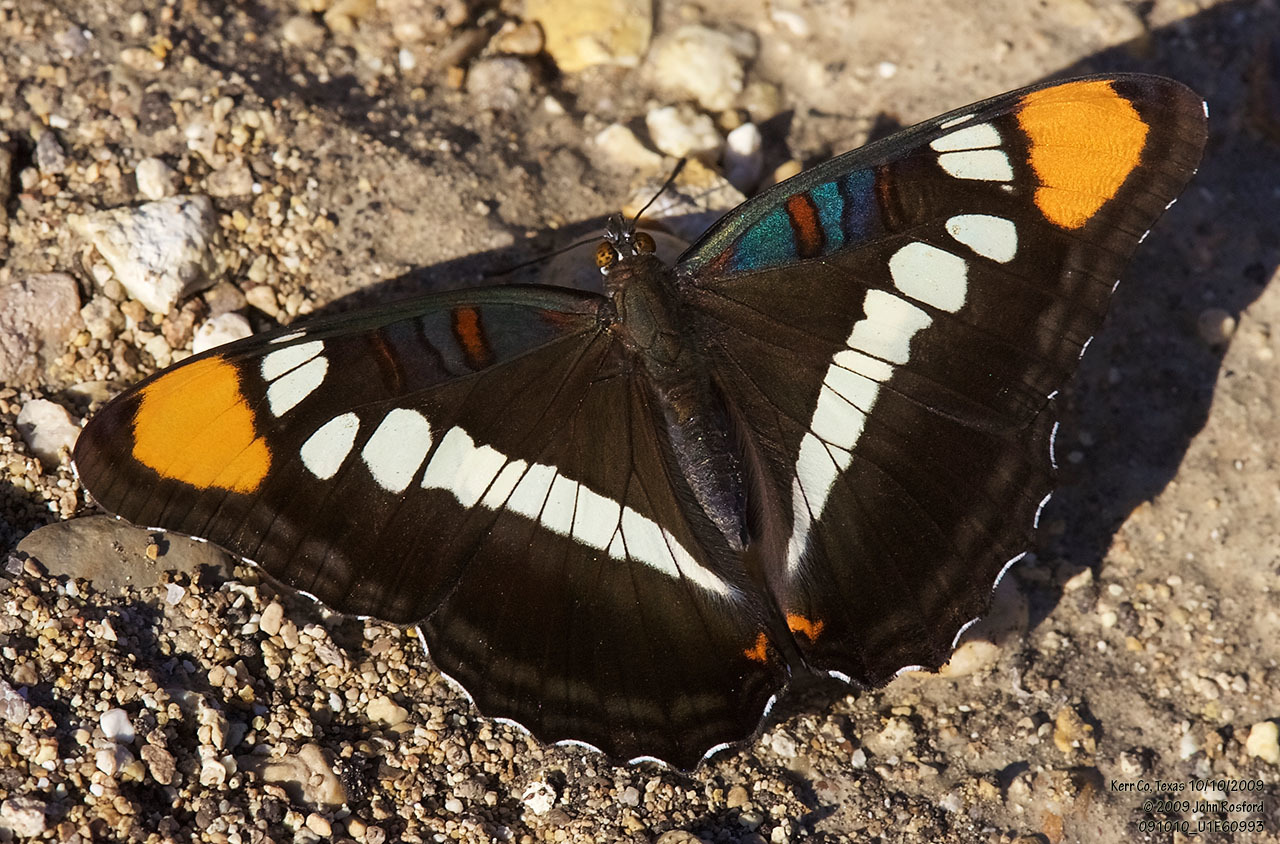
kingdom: Animalia
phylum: Arthropoda
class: Insecta
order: Lepidoptera
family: Nymphalidae
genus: Limenitis
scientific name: Limenitis bredowii
